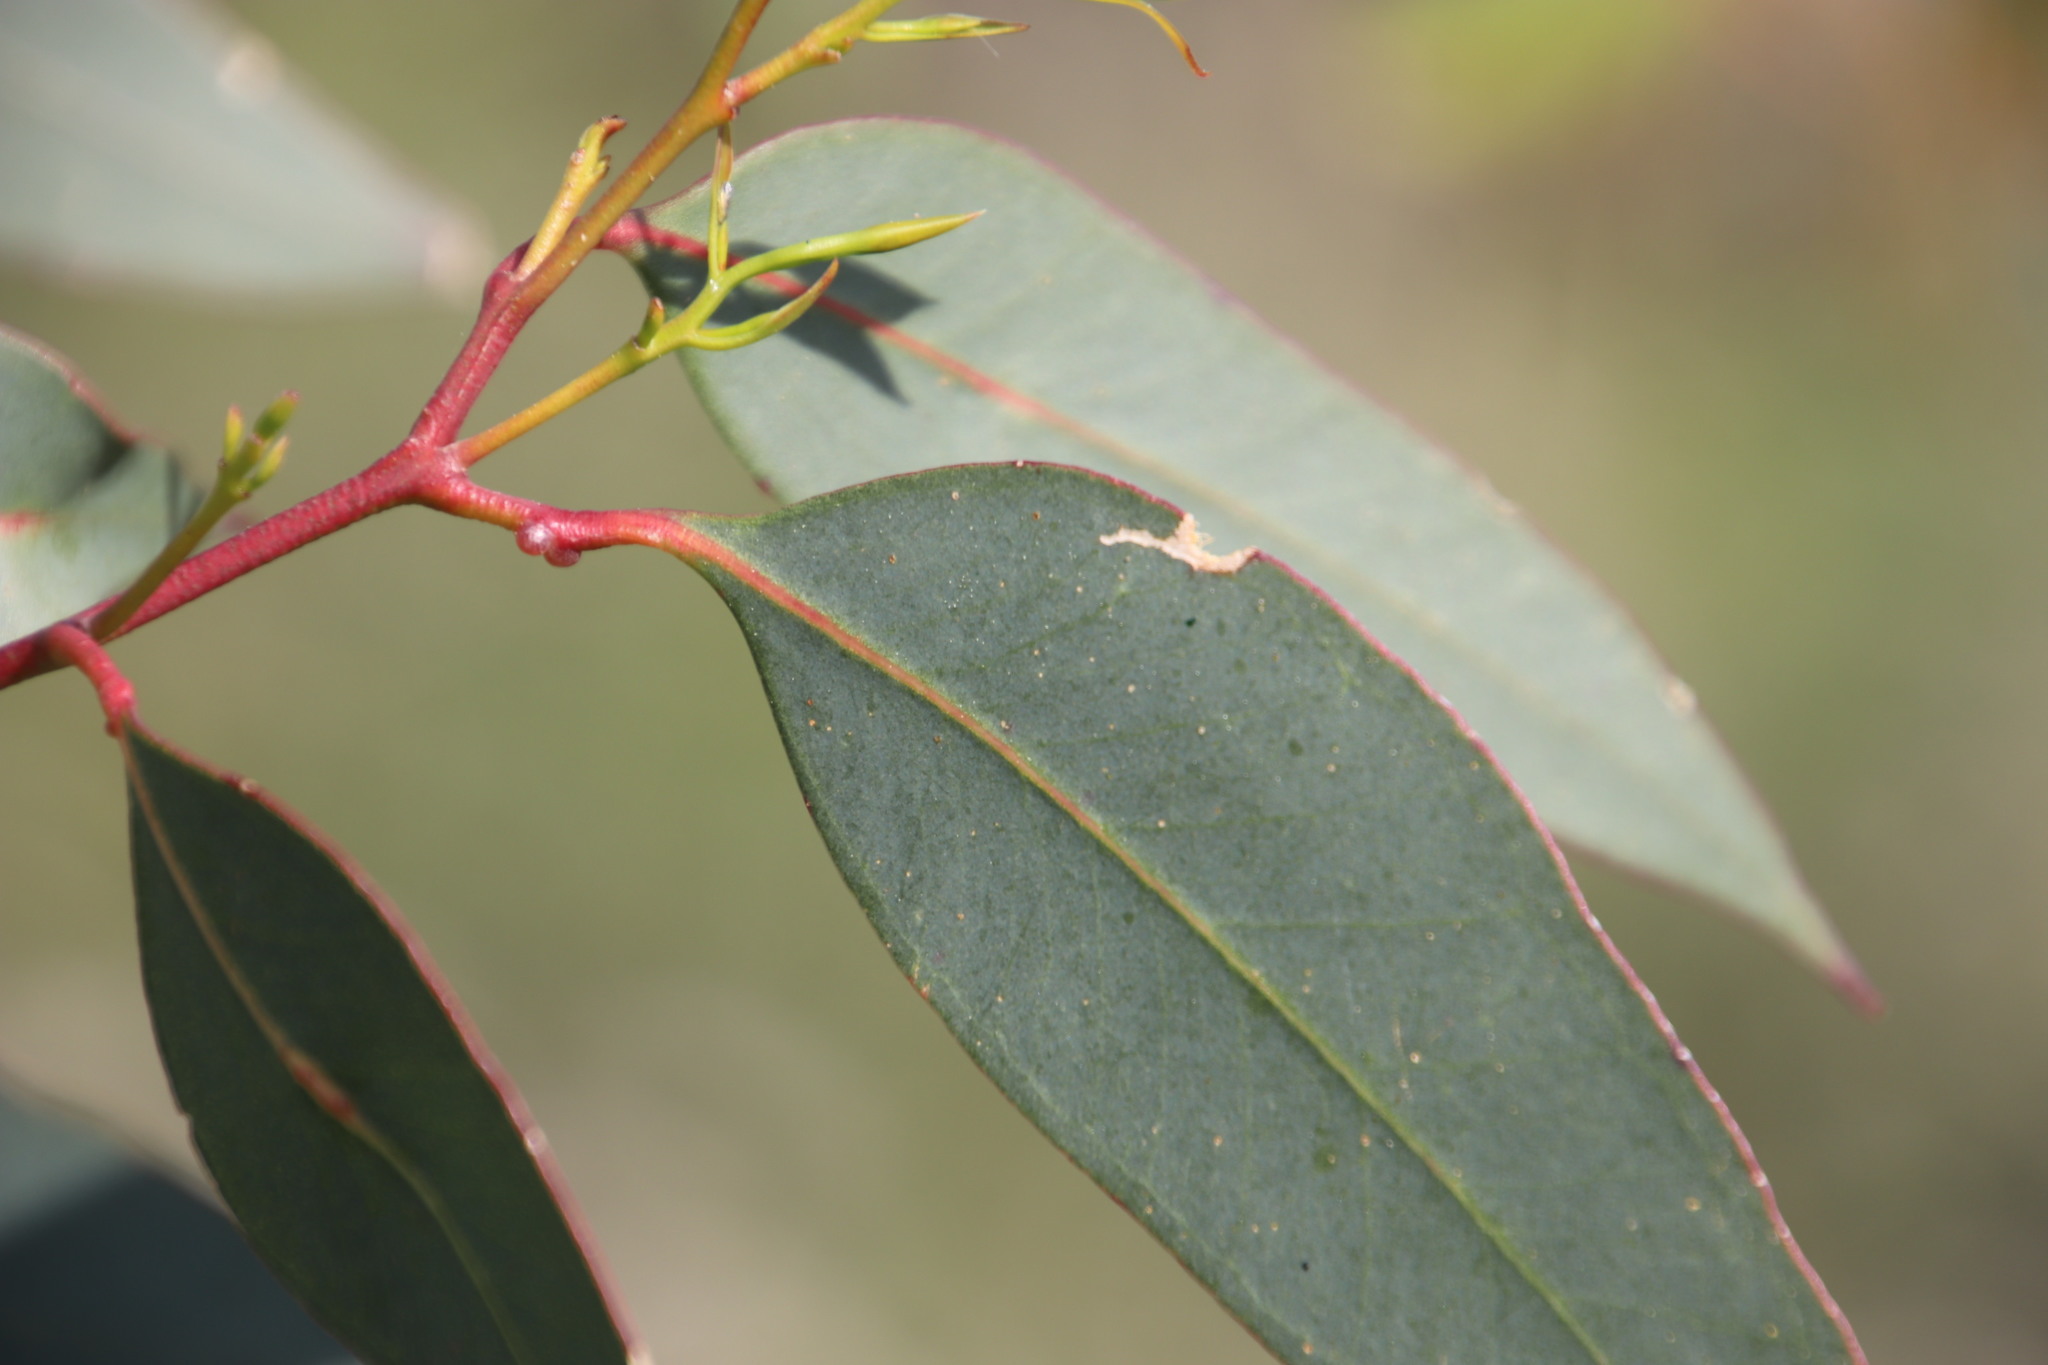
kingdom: Animalia
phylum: Arthropoda
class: Insecta
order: Hymenoptera
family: Eulophidae
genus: Leptocybe
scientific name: Leptocybe invasa
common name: Gall wasp
